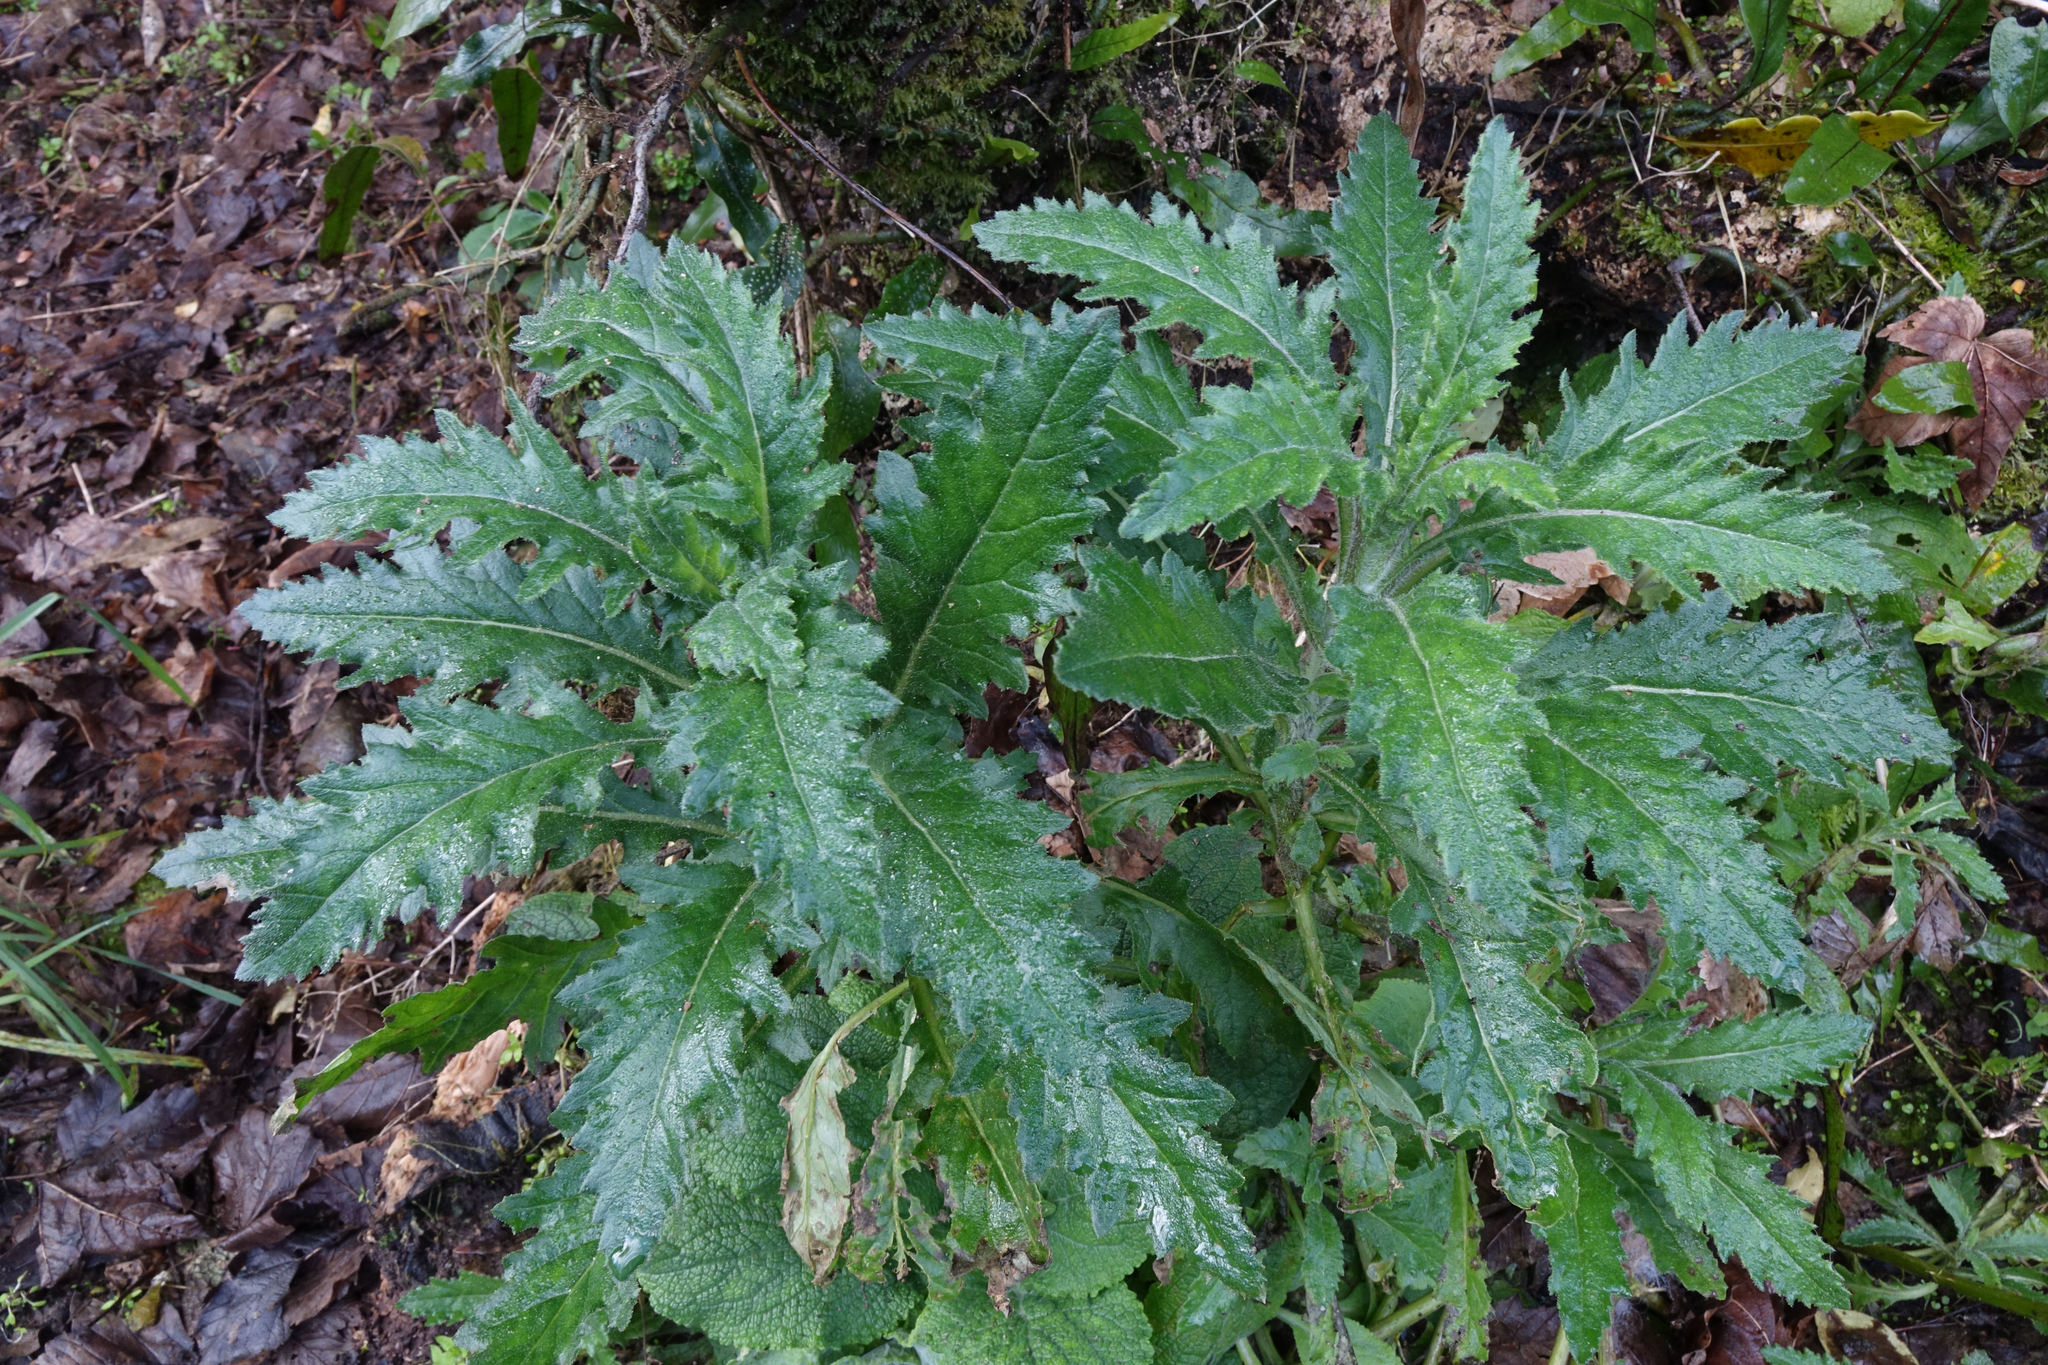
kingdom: Plantae
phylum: Tracheophyta
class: Magnoliopsida
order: Asterales
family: Asteraceae
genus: Senecio
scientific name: Senecio biserratus
